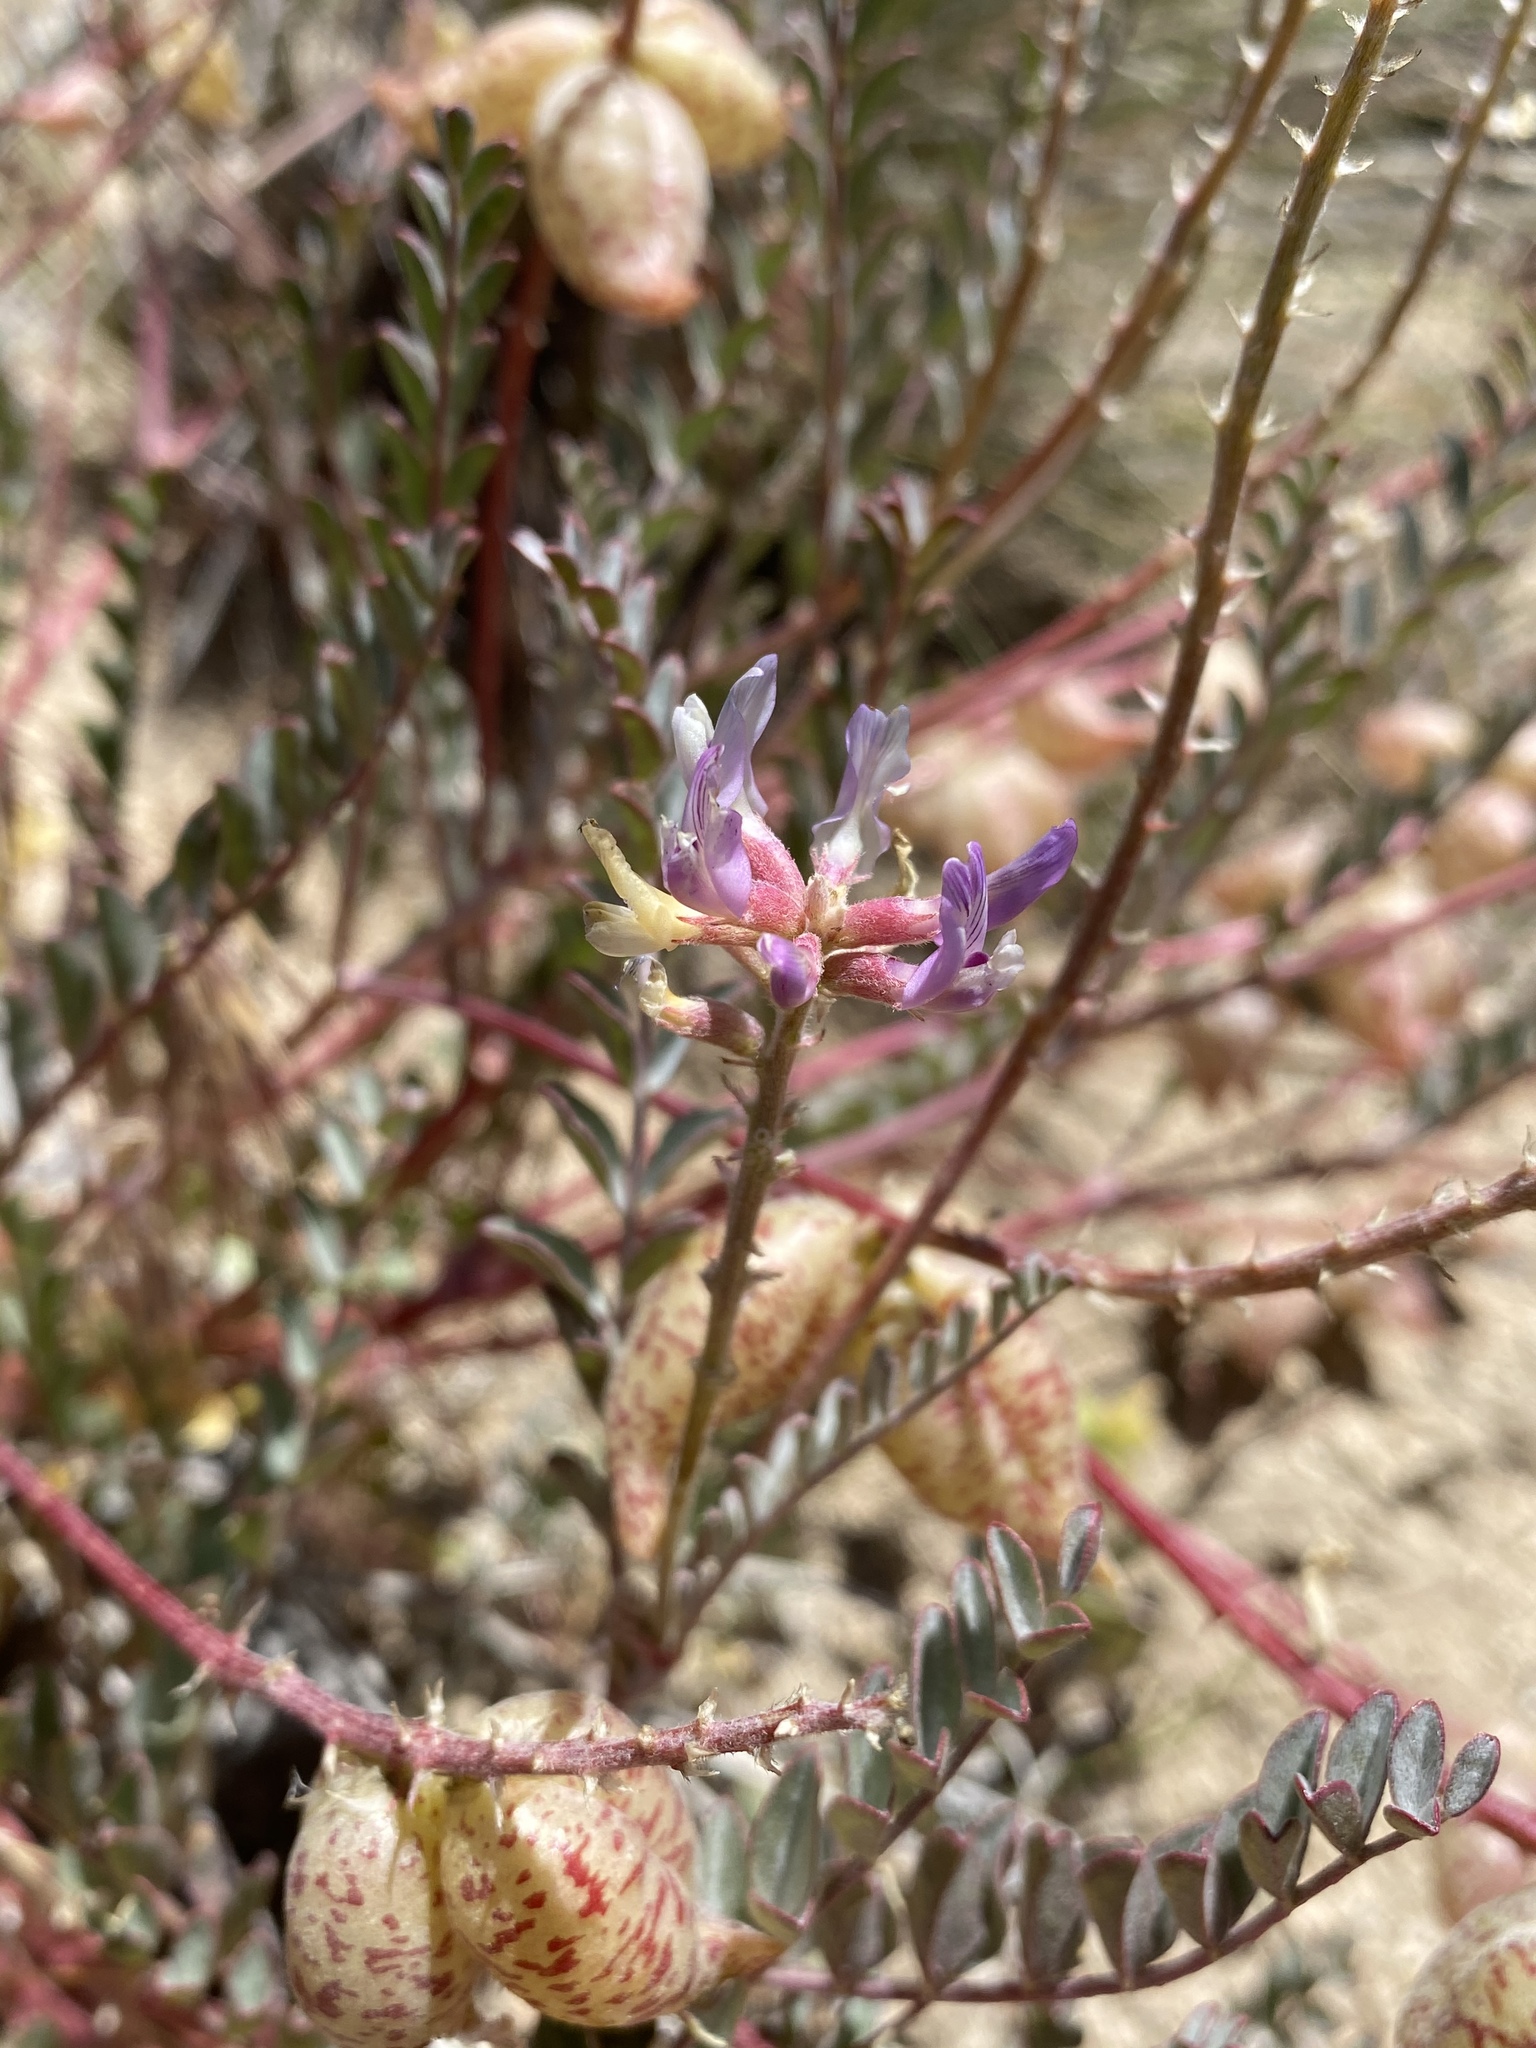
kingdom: Plantae
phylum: Tracheophyta
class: Magnoliopsida
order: Fabales
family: Fabaceae
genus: Astragalus
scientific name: Astragalus lentiginosus
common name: Freckled milkvetch
